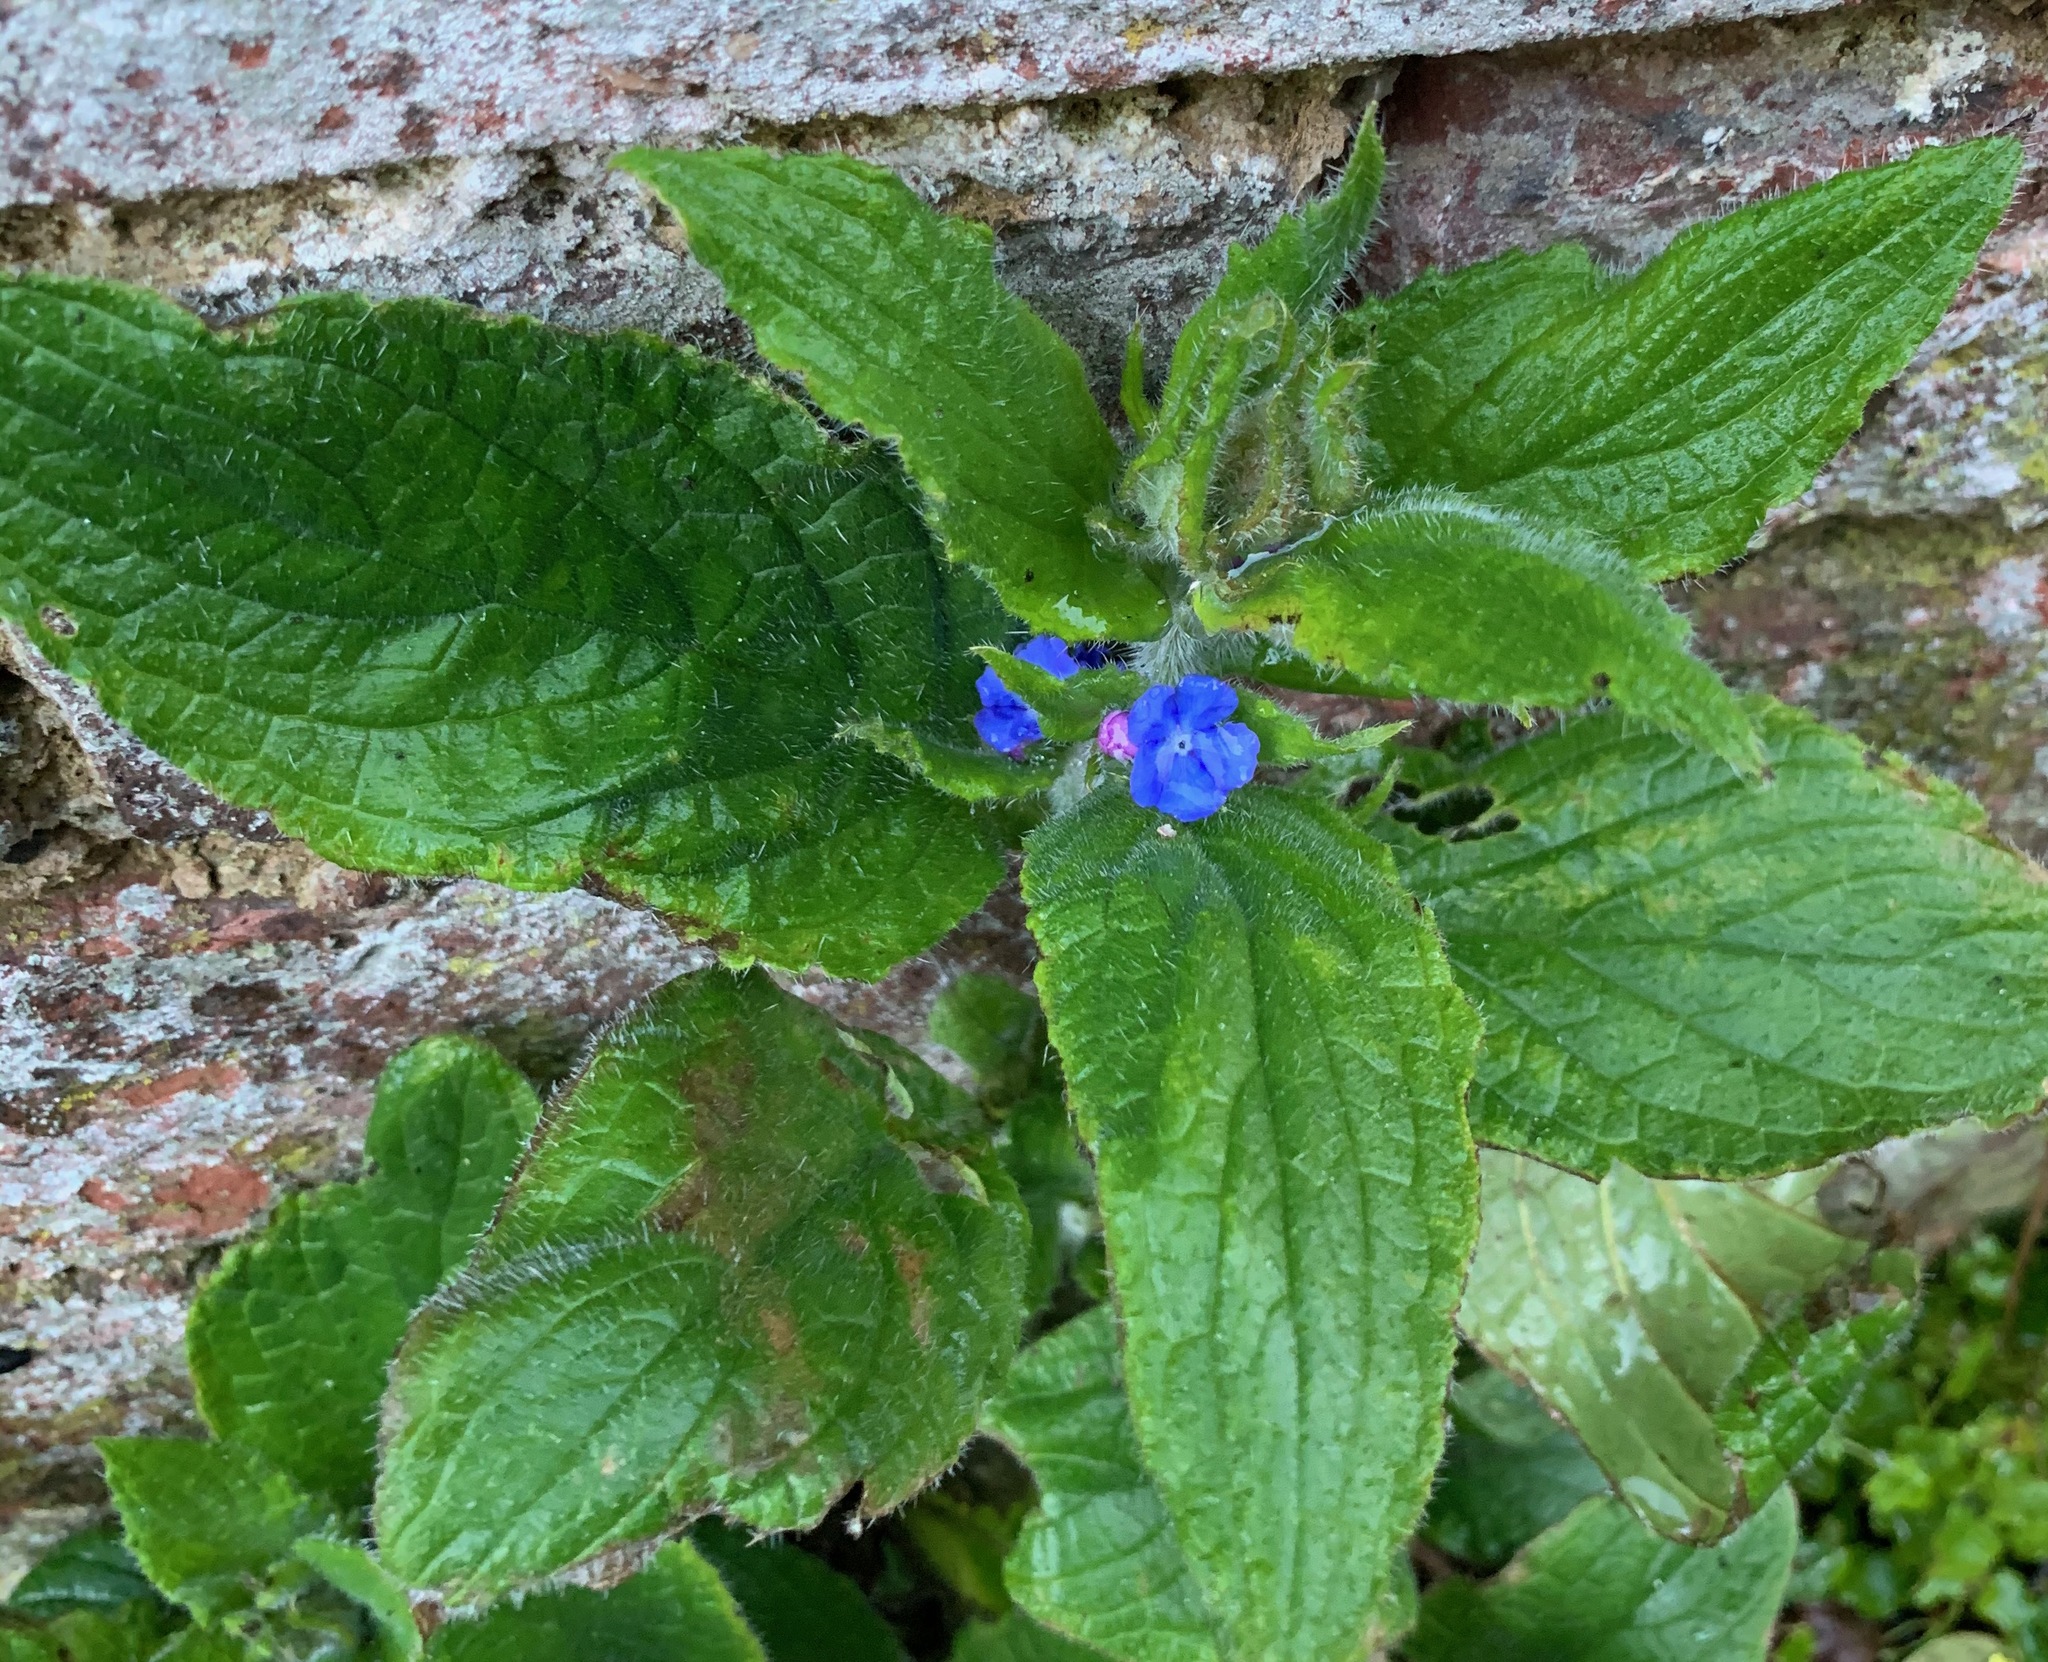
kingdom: Plantae
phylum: Tracheophyta
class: Magnoliopsida
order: Boraginales
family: Boraginaceae
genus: Pentaglottis
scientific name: Pentaglottis sempervirens
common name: Green alkanet
